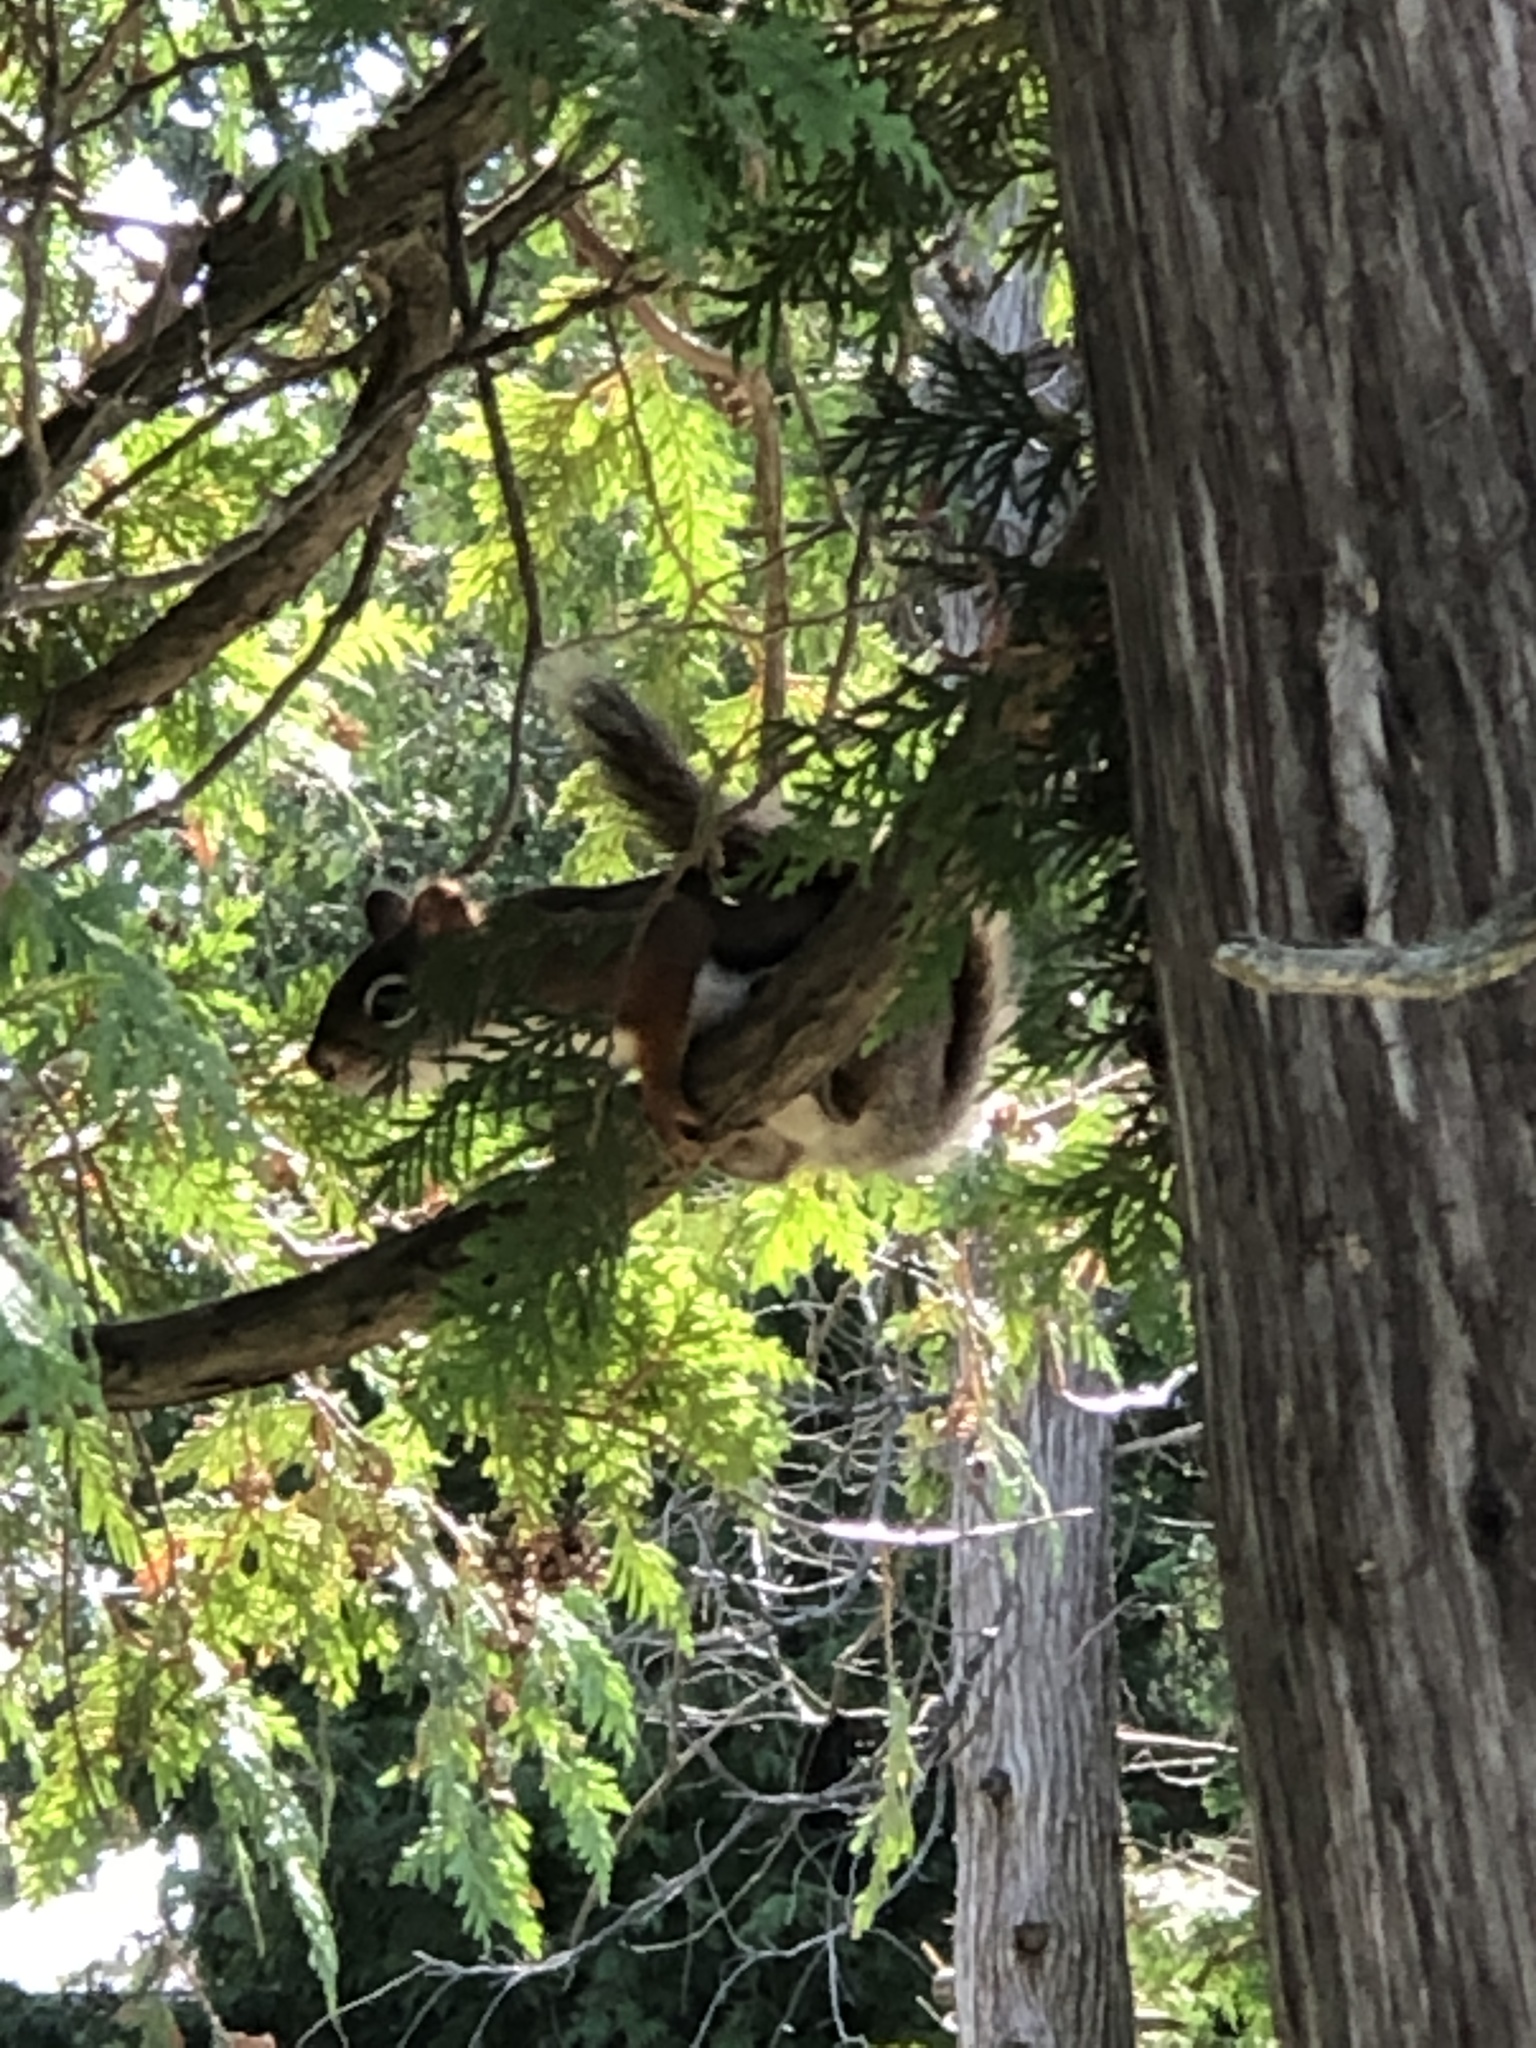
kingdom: Animalia
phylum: Chordata
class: Mammalia
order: Rodentia
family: Sciuridae
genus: Tamiasciurus
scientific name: Tamiasciurus hudsonicus
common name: Red squirrel
